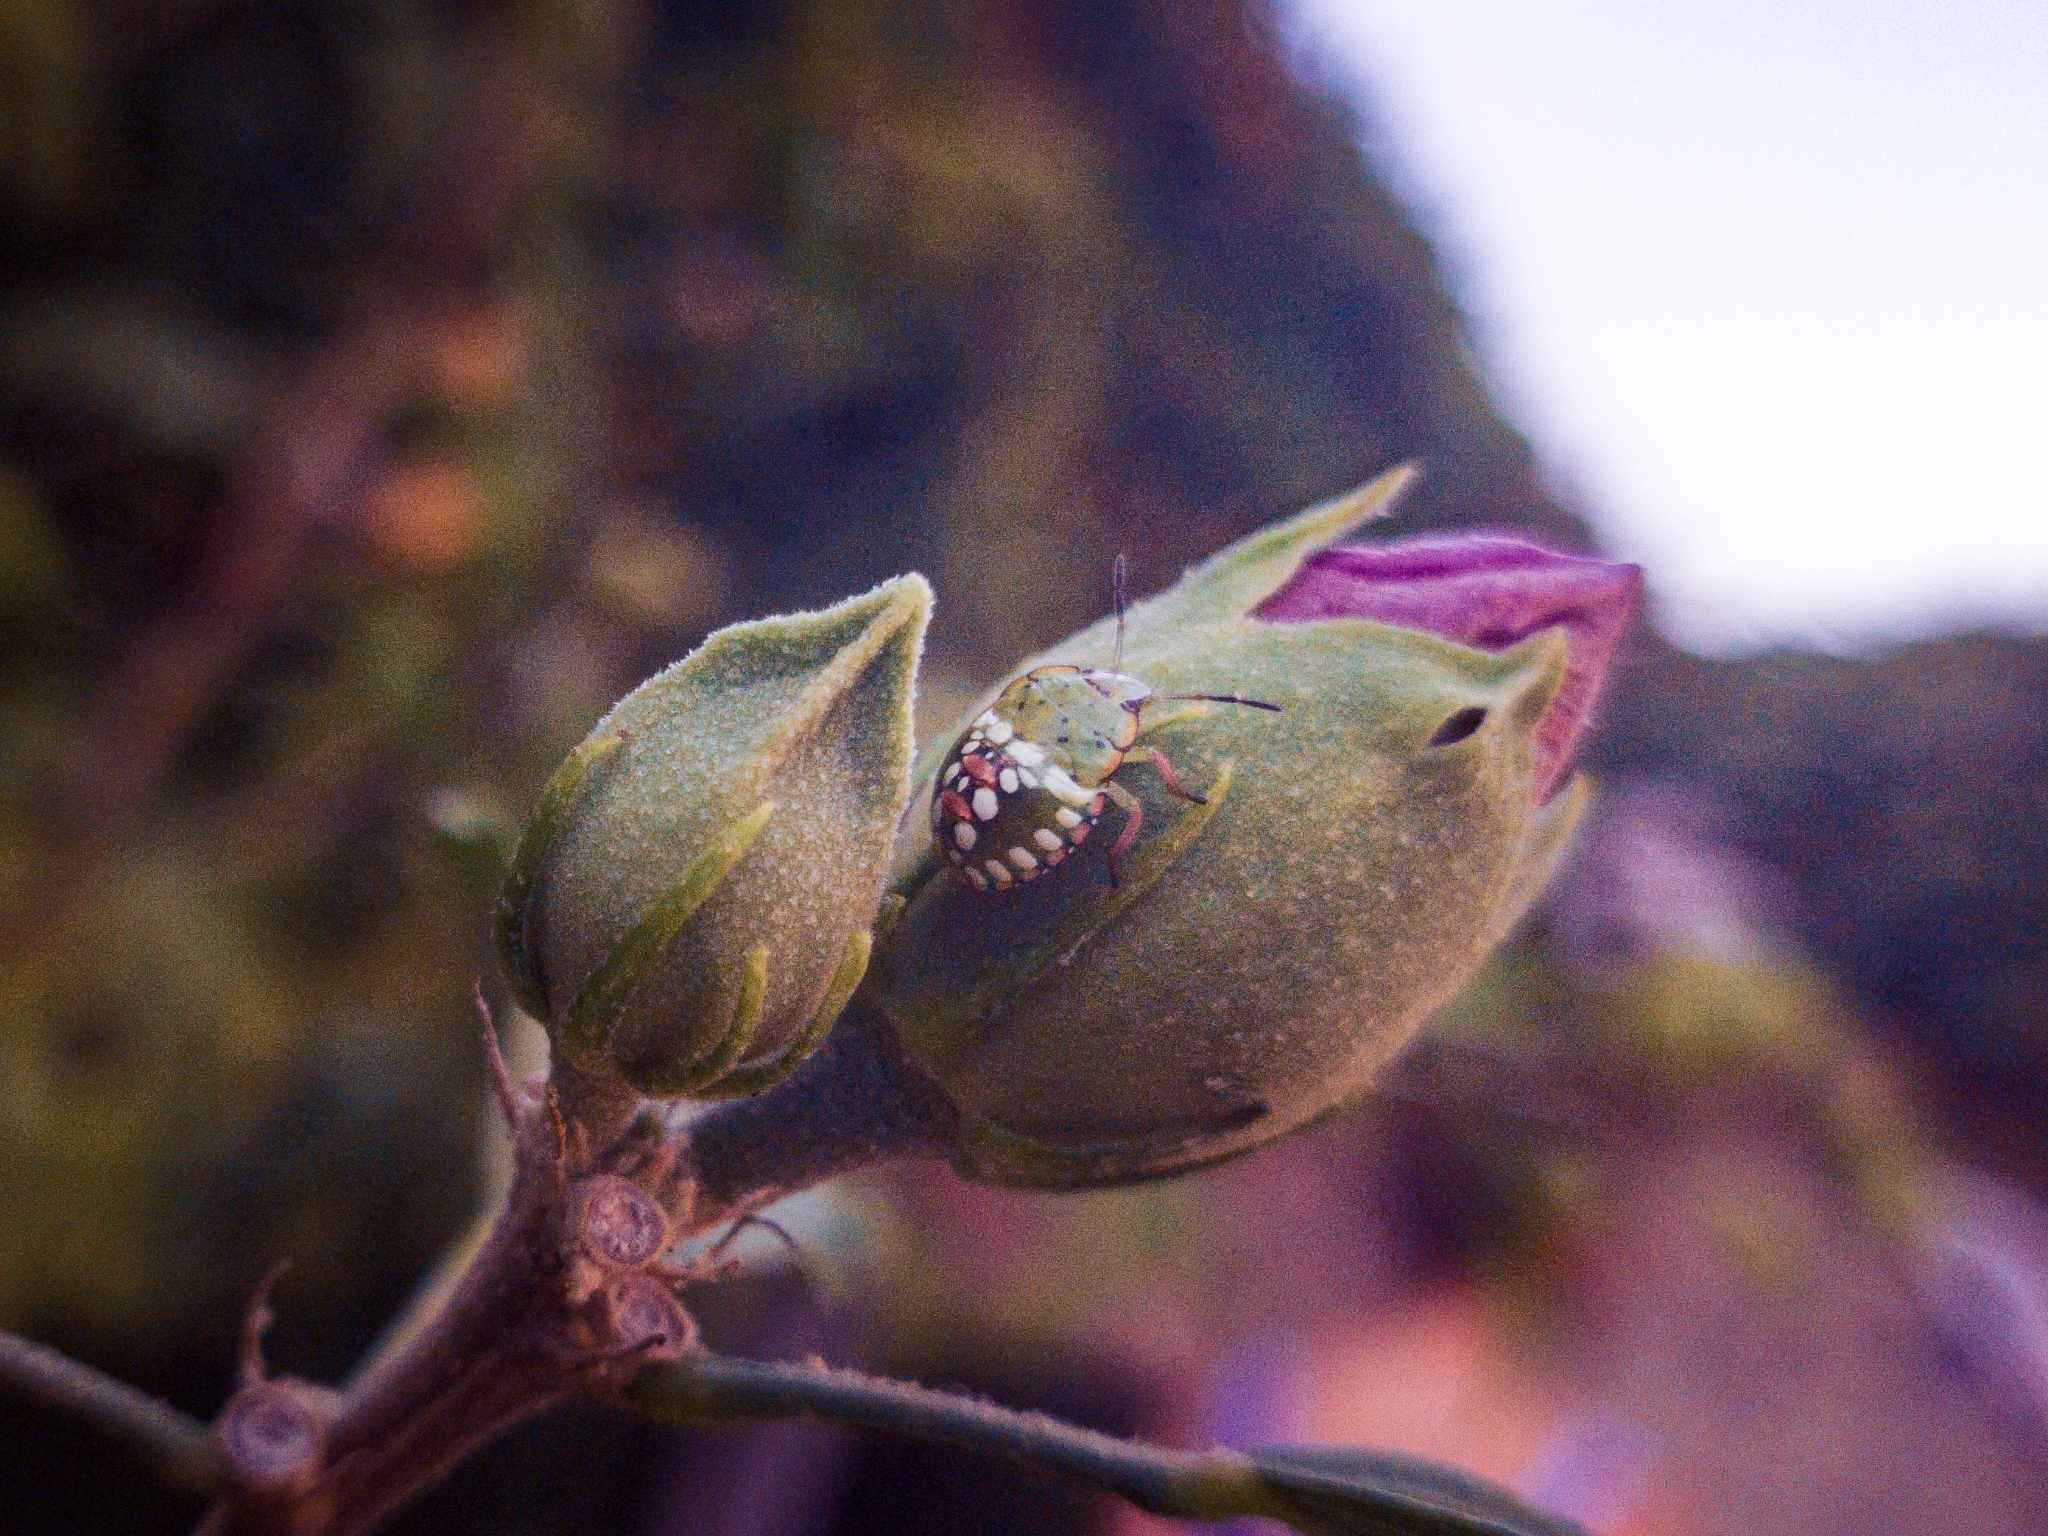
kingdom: Animalia
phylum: Arthropoda
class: Insecta
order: Hemiptera
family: Pentatomidae
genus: Nezara
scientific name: Nezara viridula
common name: Southern green stink bug
